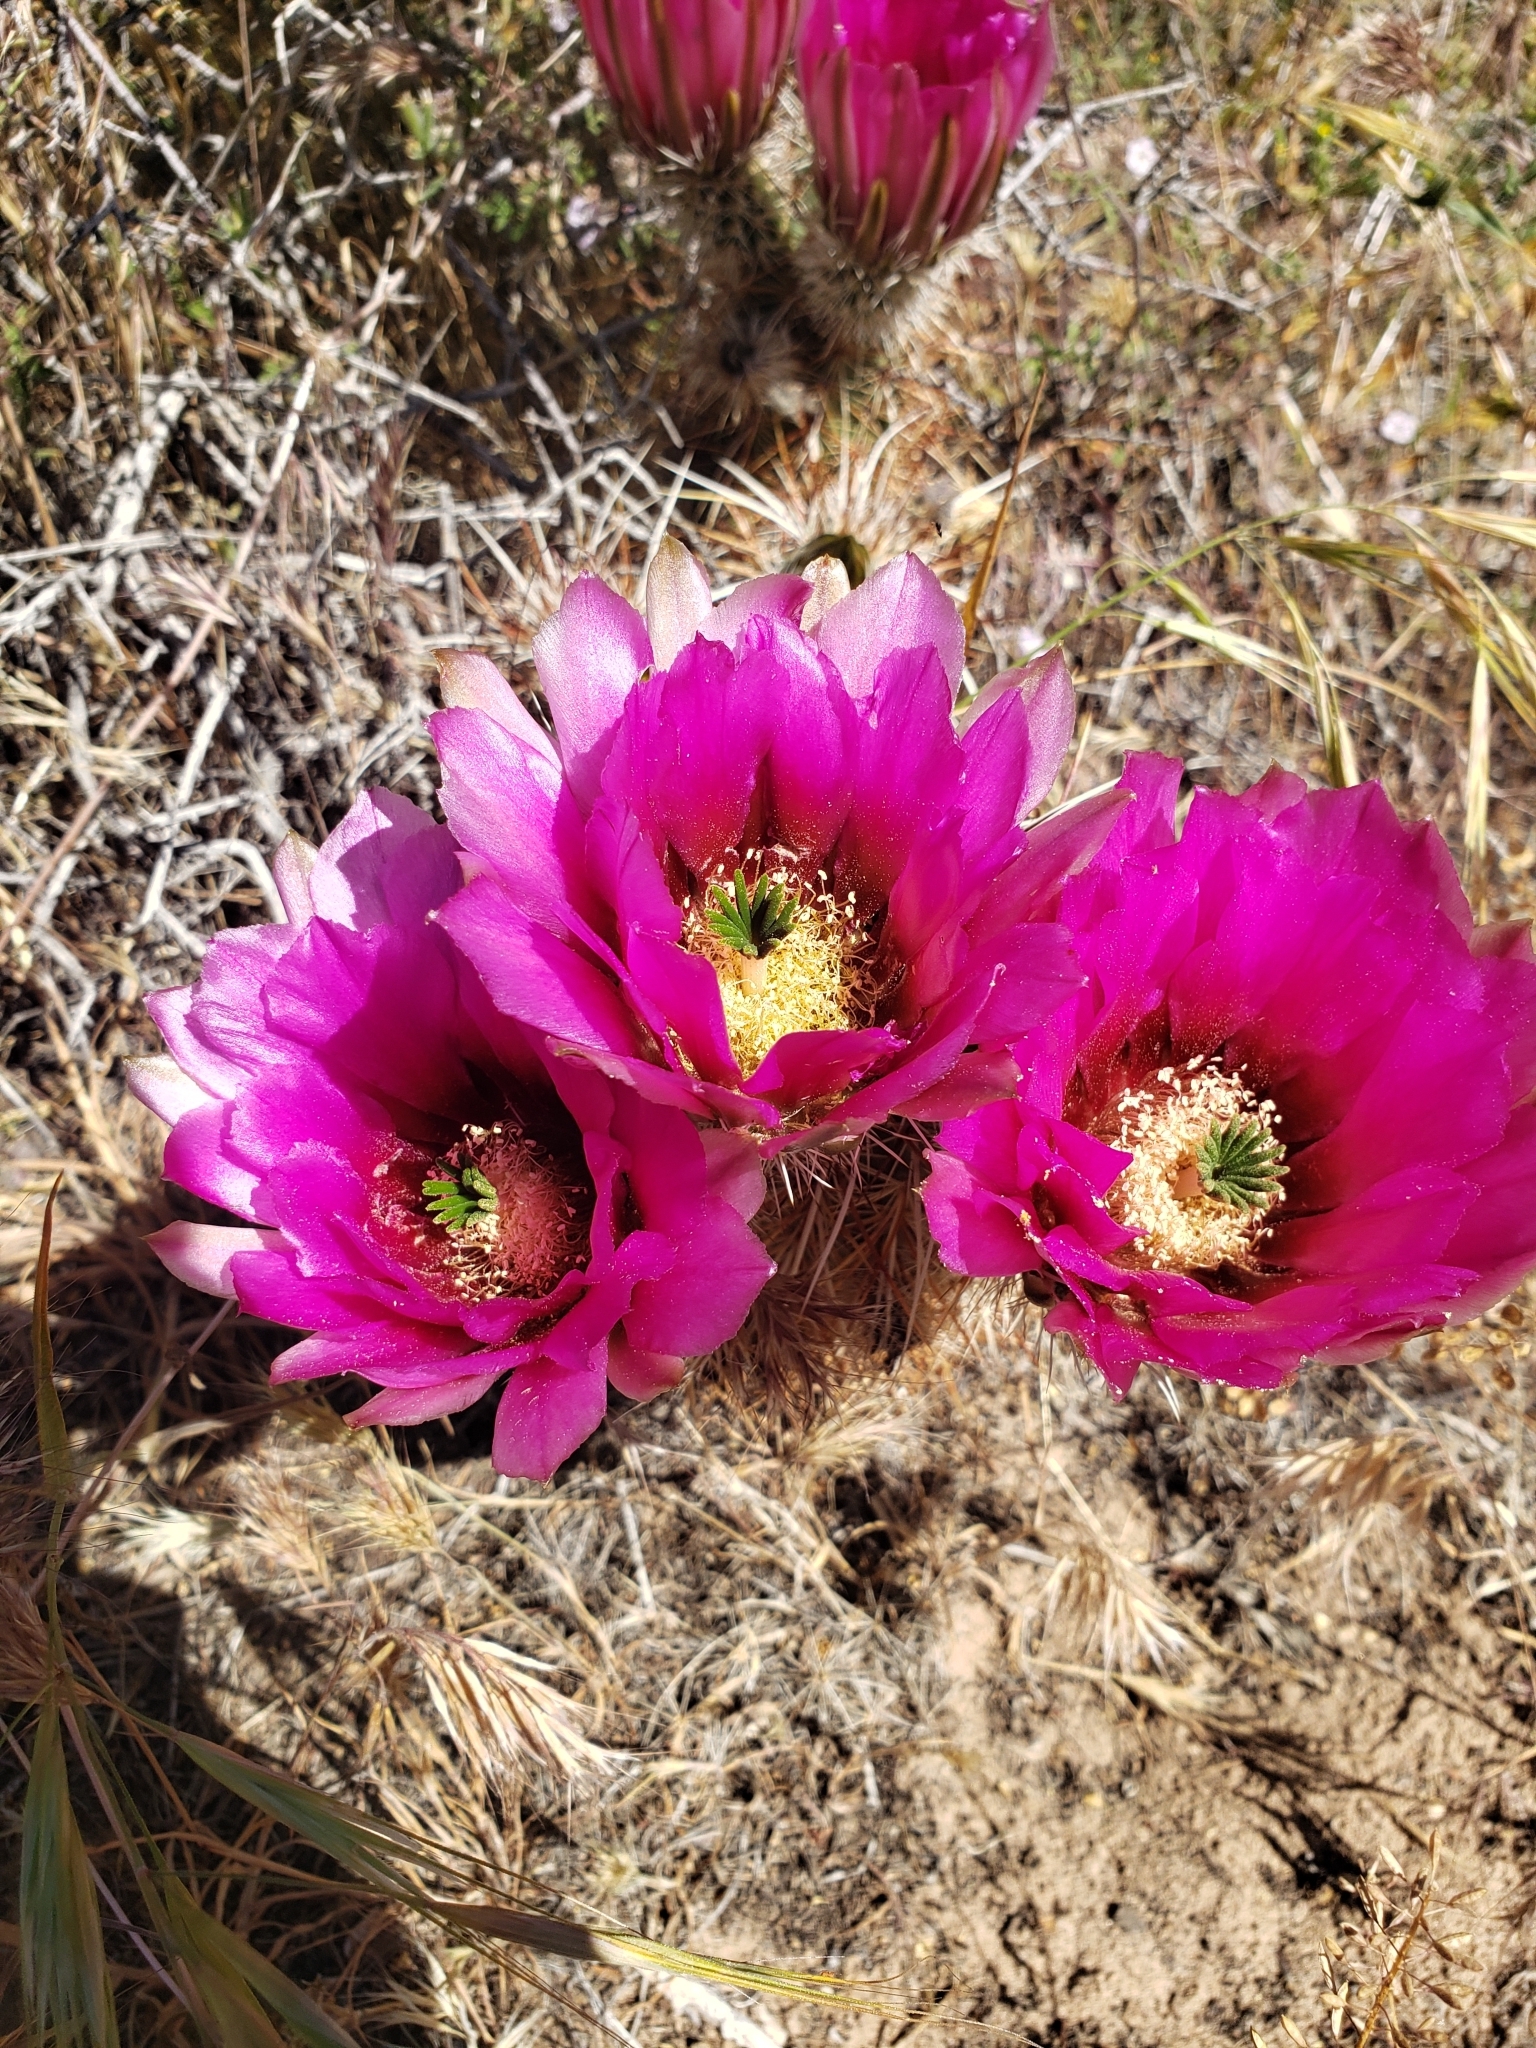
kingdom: Plantae
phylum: Tracheophyta
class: Magnoliopsida
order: Caryophyllales
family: Cactaceae
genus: Echinocereus
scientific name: Echinocereus engelmannii
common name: Engelmann's hedgehog cactus
